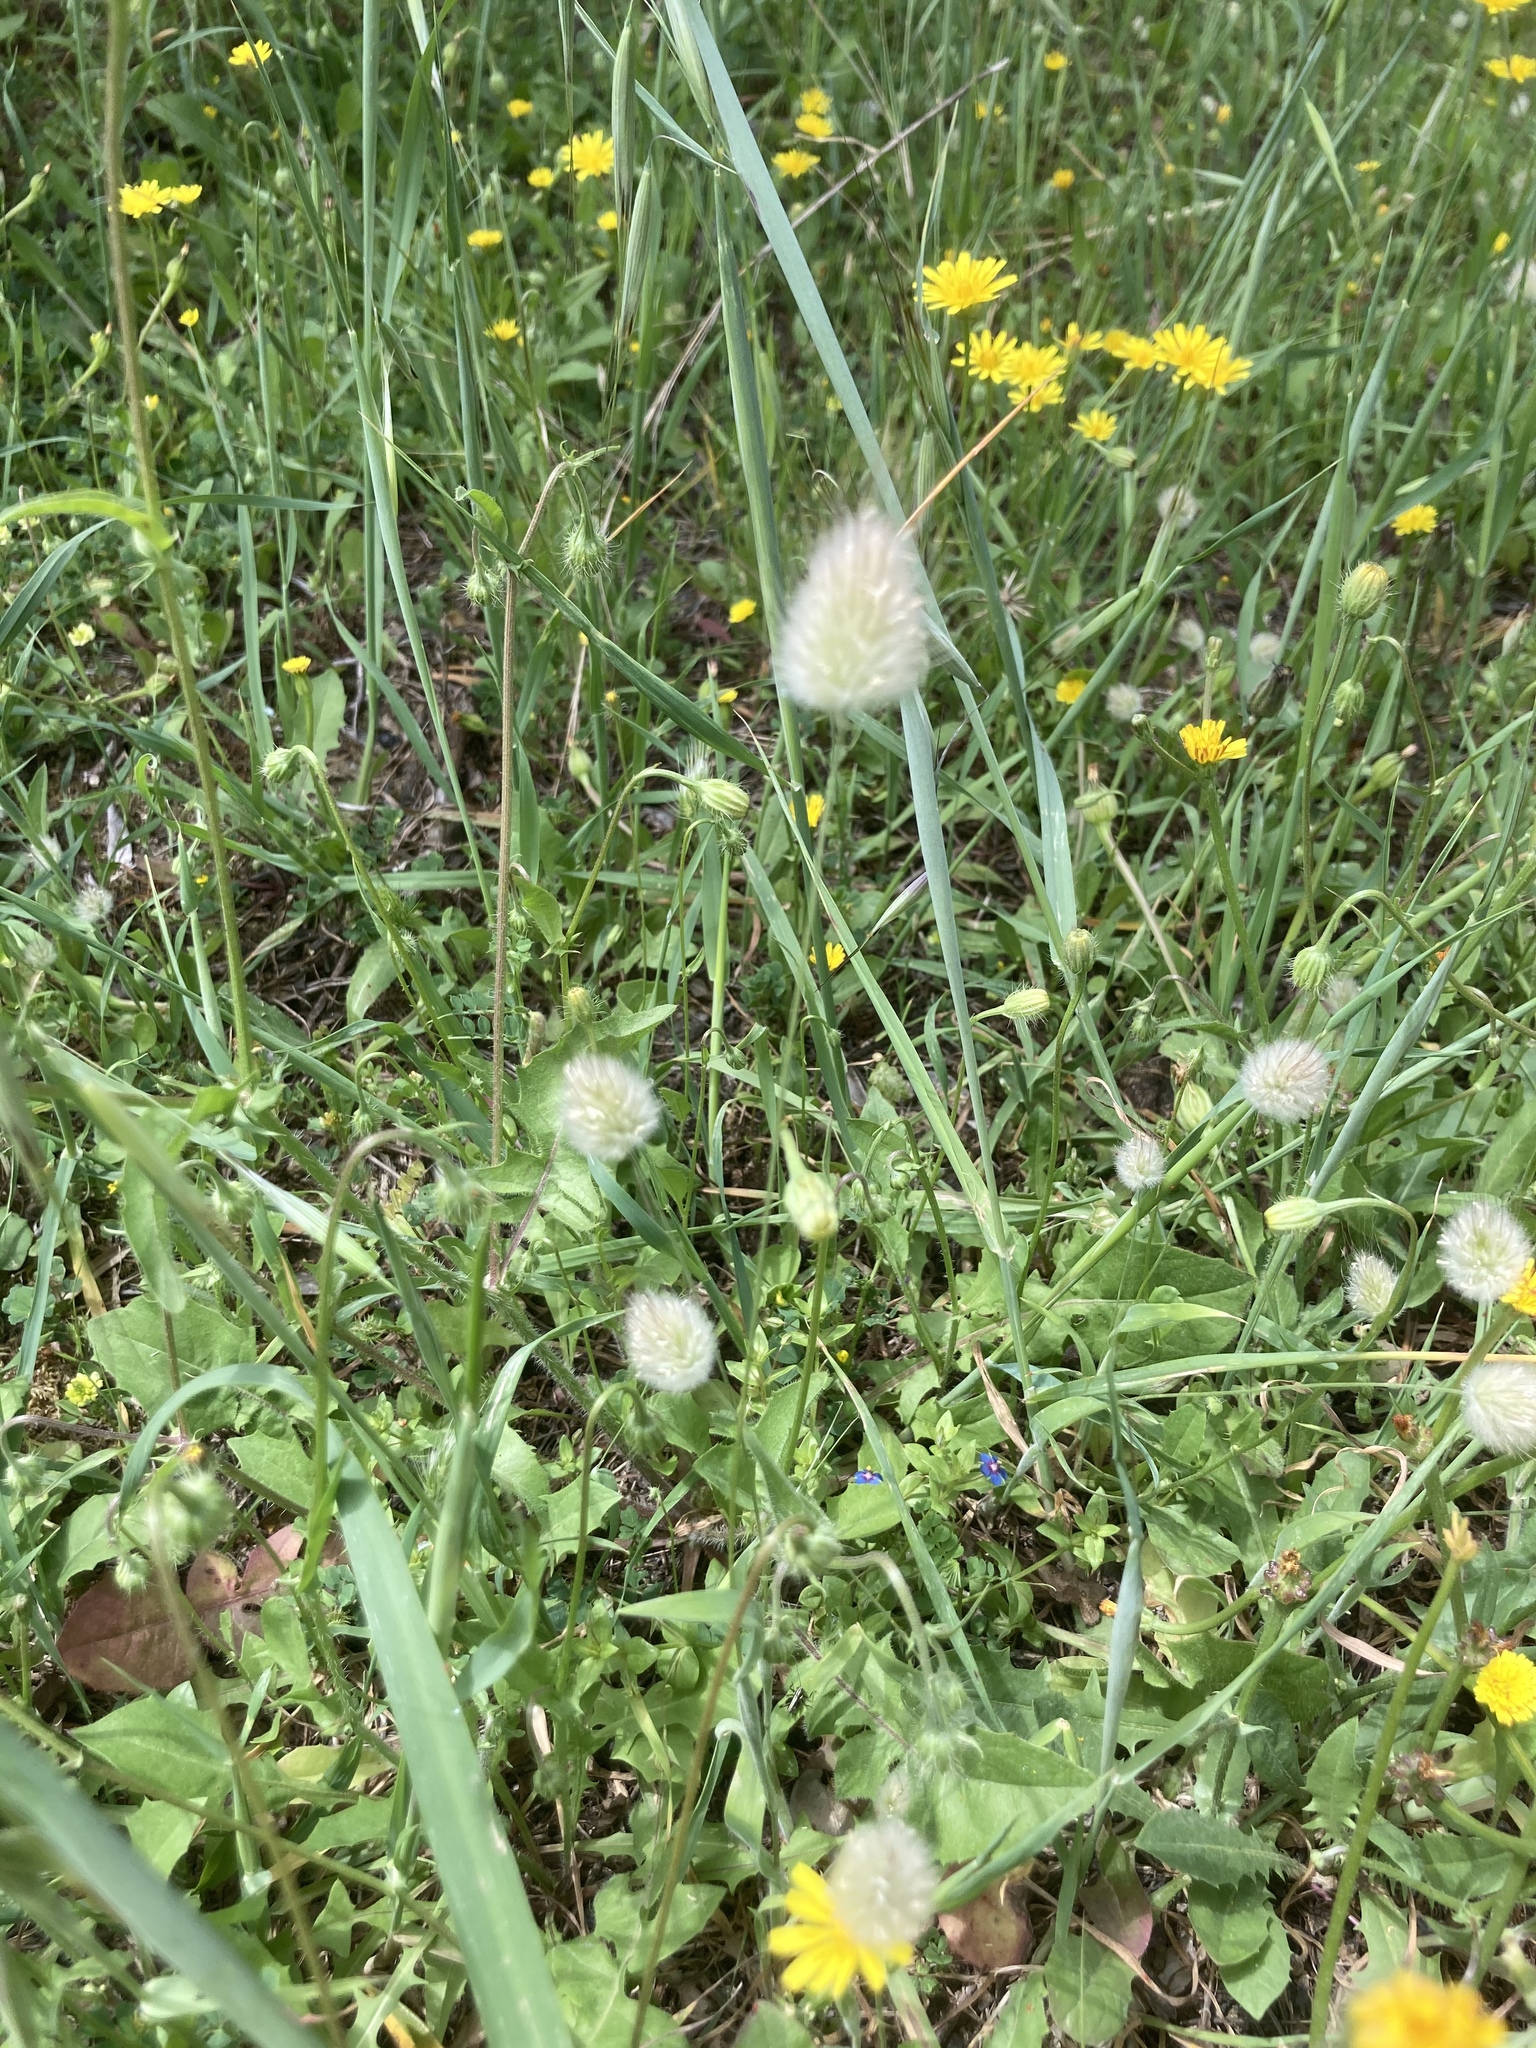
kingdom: Plantae
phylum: Tracheophyta
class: Liliopsida
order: Poales
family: Poaceae
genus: Lagurus
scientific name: Lagurus ovatus
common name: Hare's-tail
